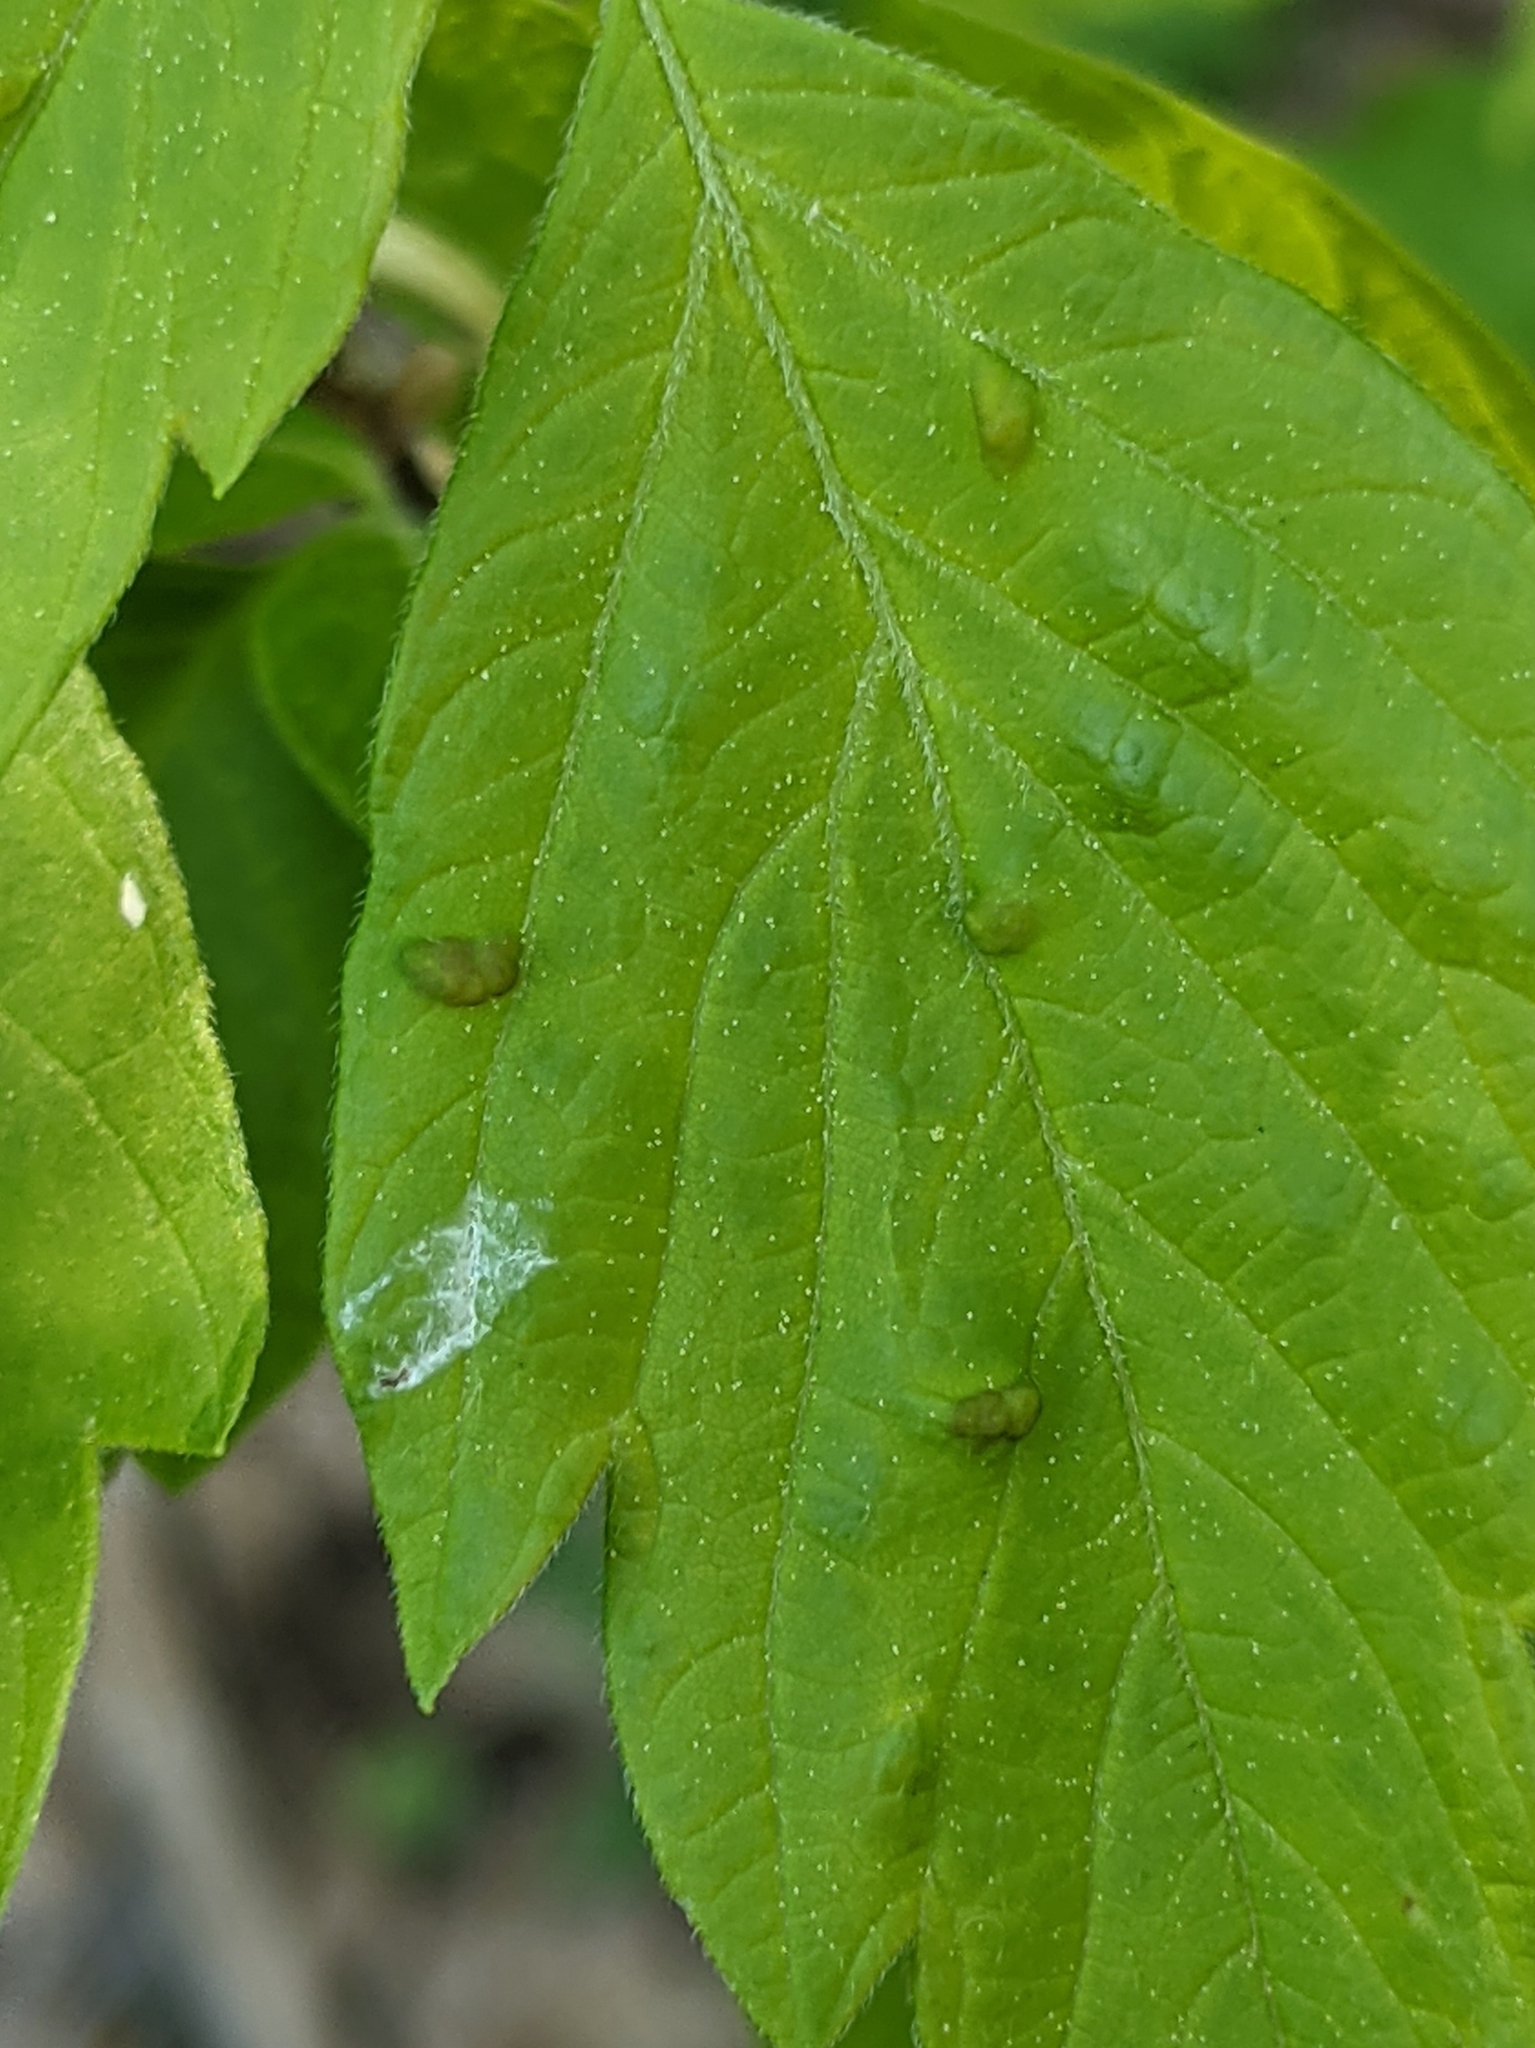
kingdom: Animalia
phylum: Arthropoda
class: Arachnida
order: Trombidiformes
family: Eriophyidae
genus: Aceria
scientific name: Aceria
